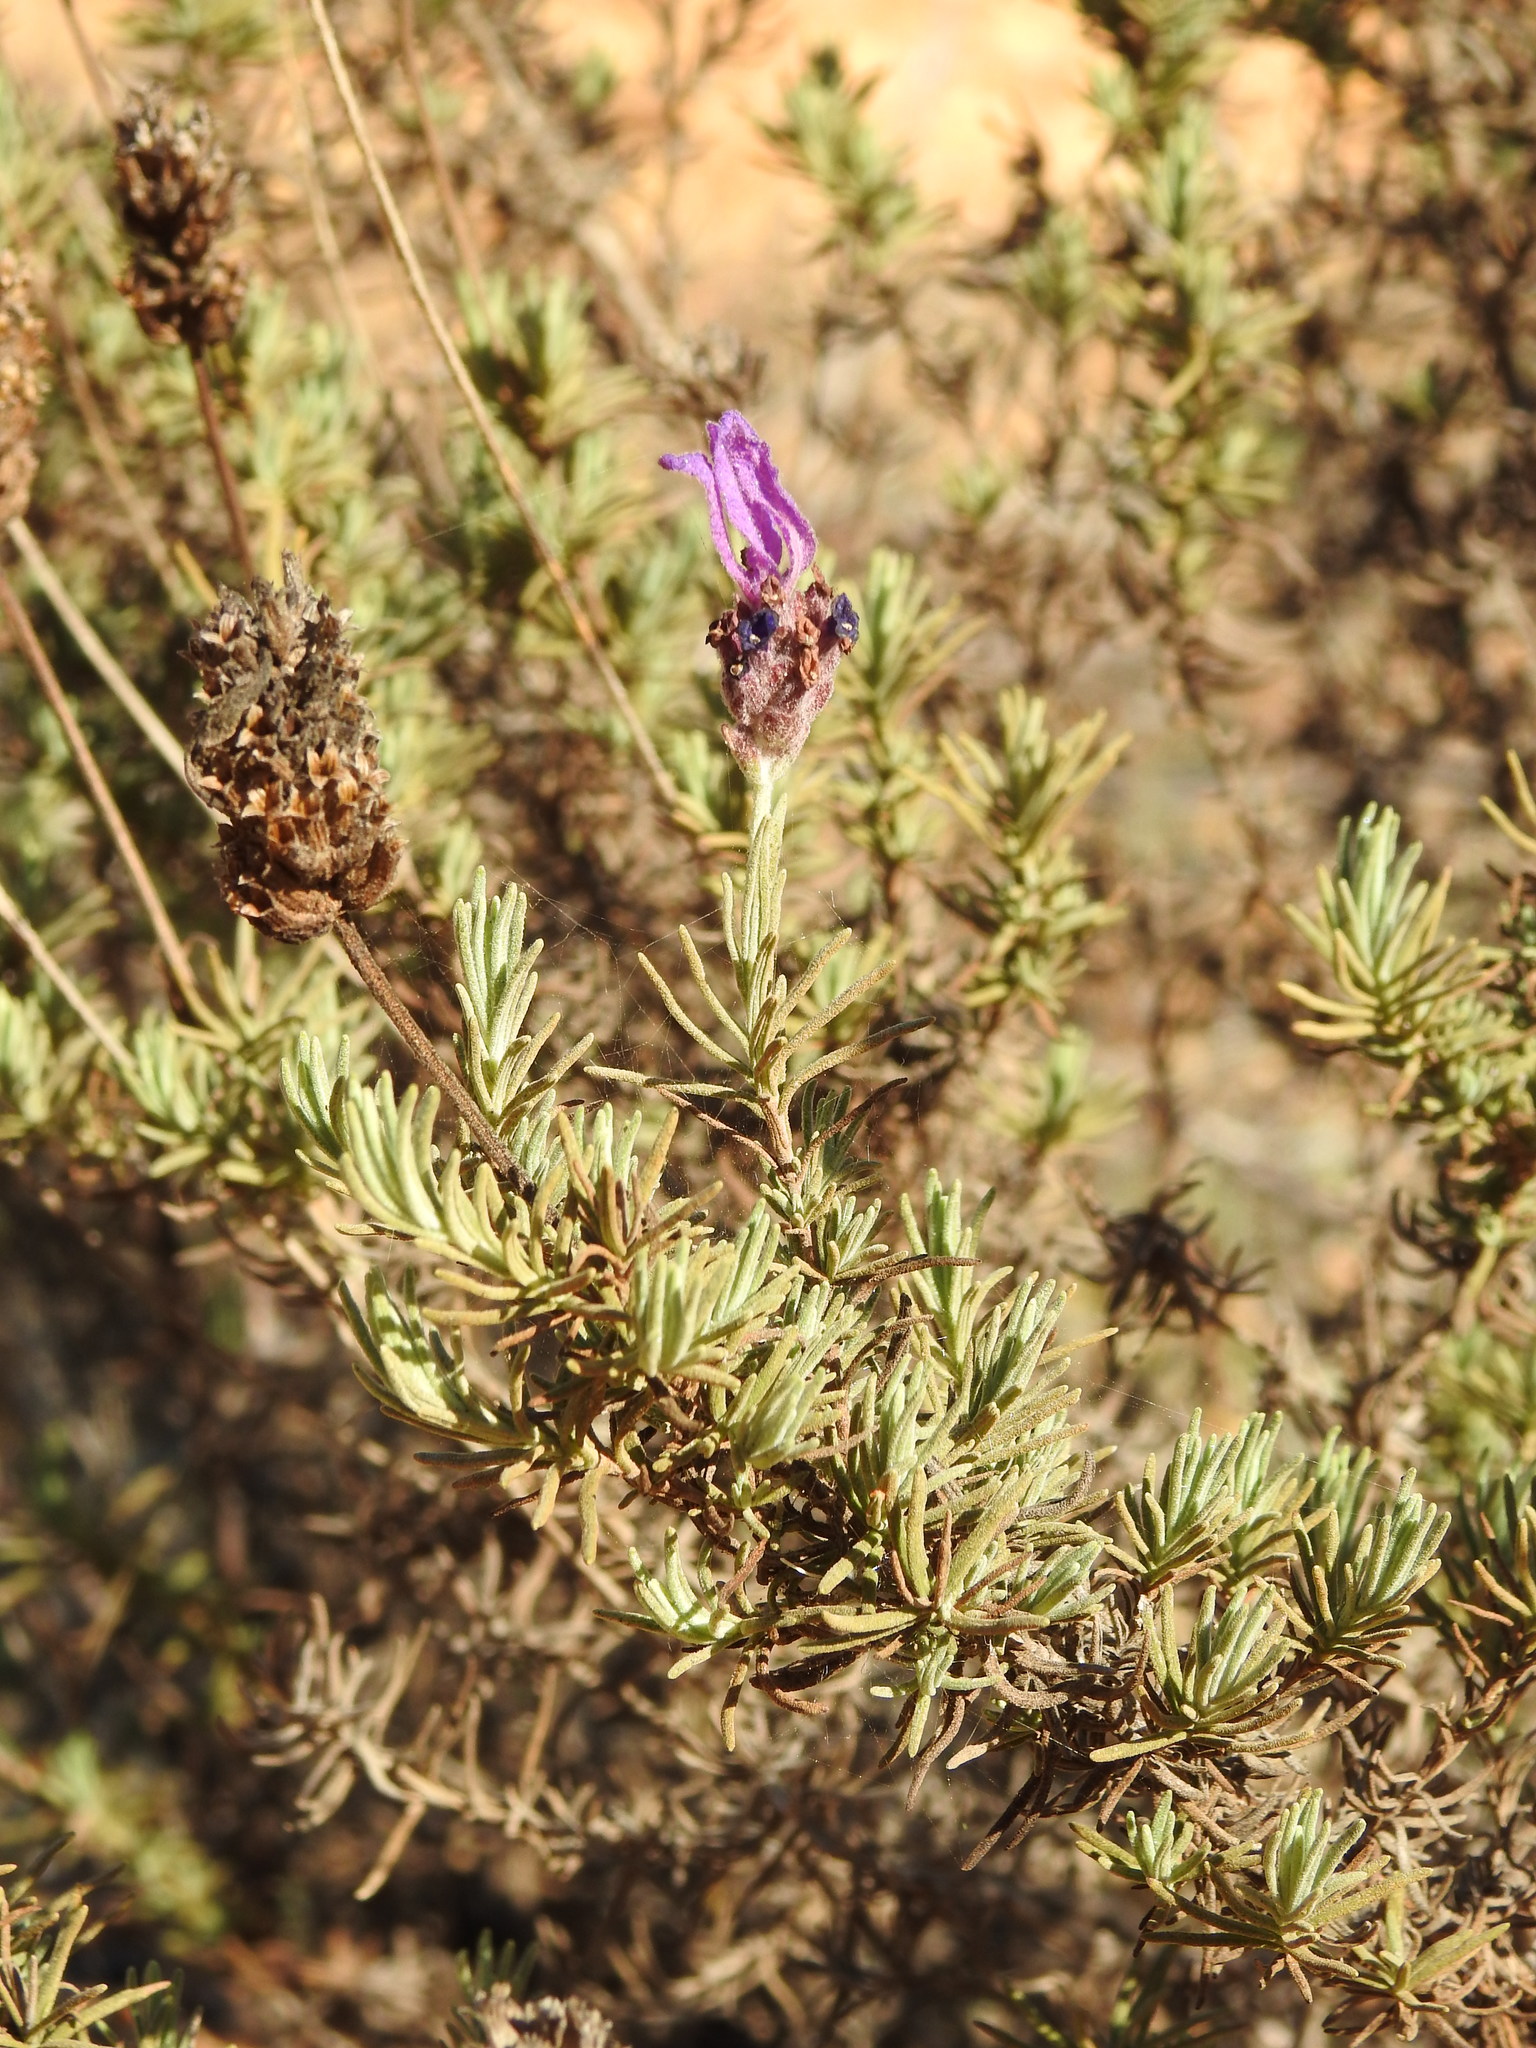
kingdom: Plantae
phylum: Tracheophyta
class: Magnoliopsida
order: Lamiales
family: Lamiaceae
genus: Lavandula
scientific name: Lavandula pedunculata
